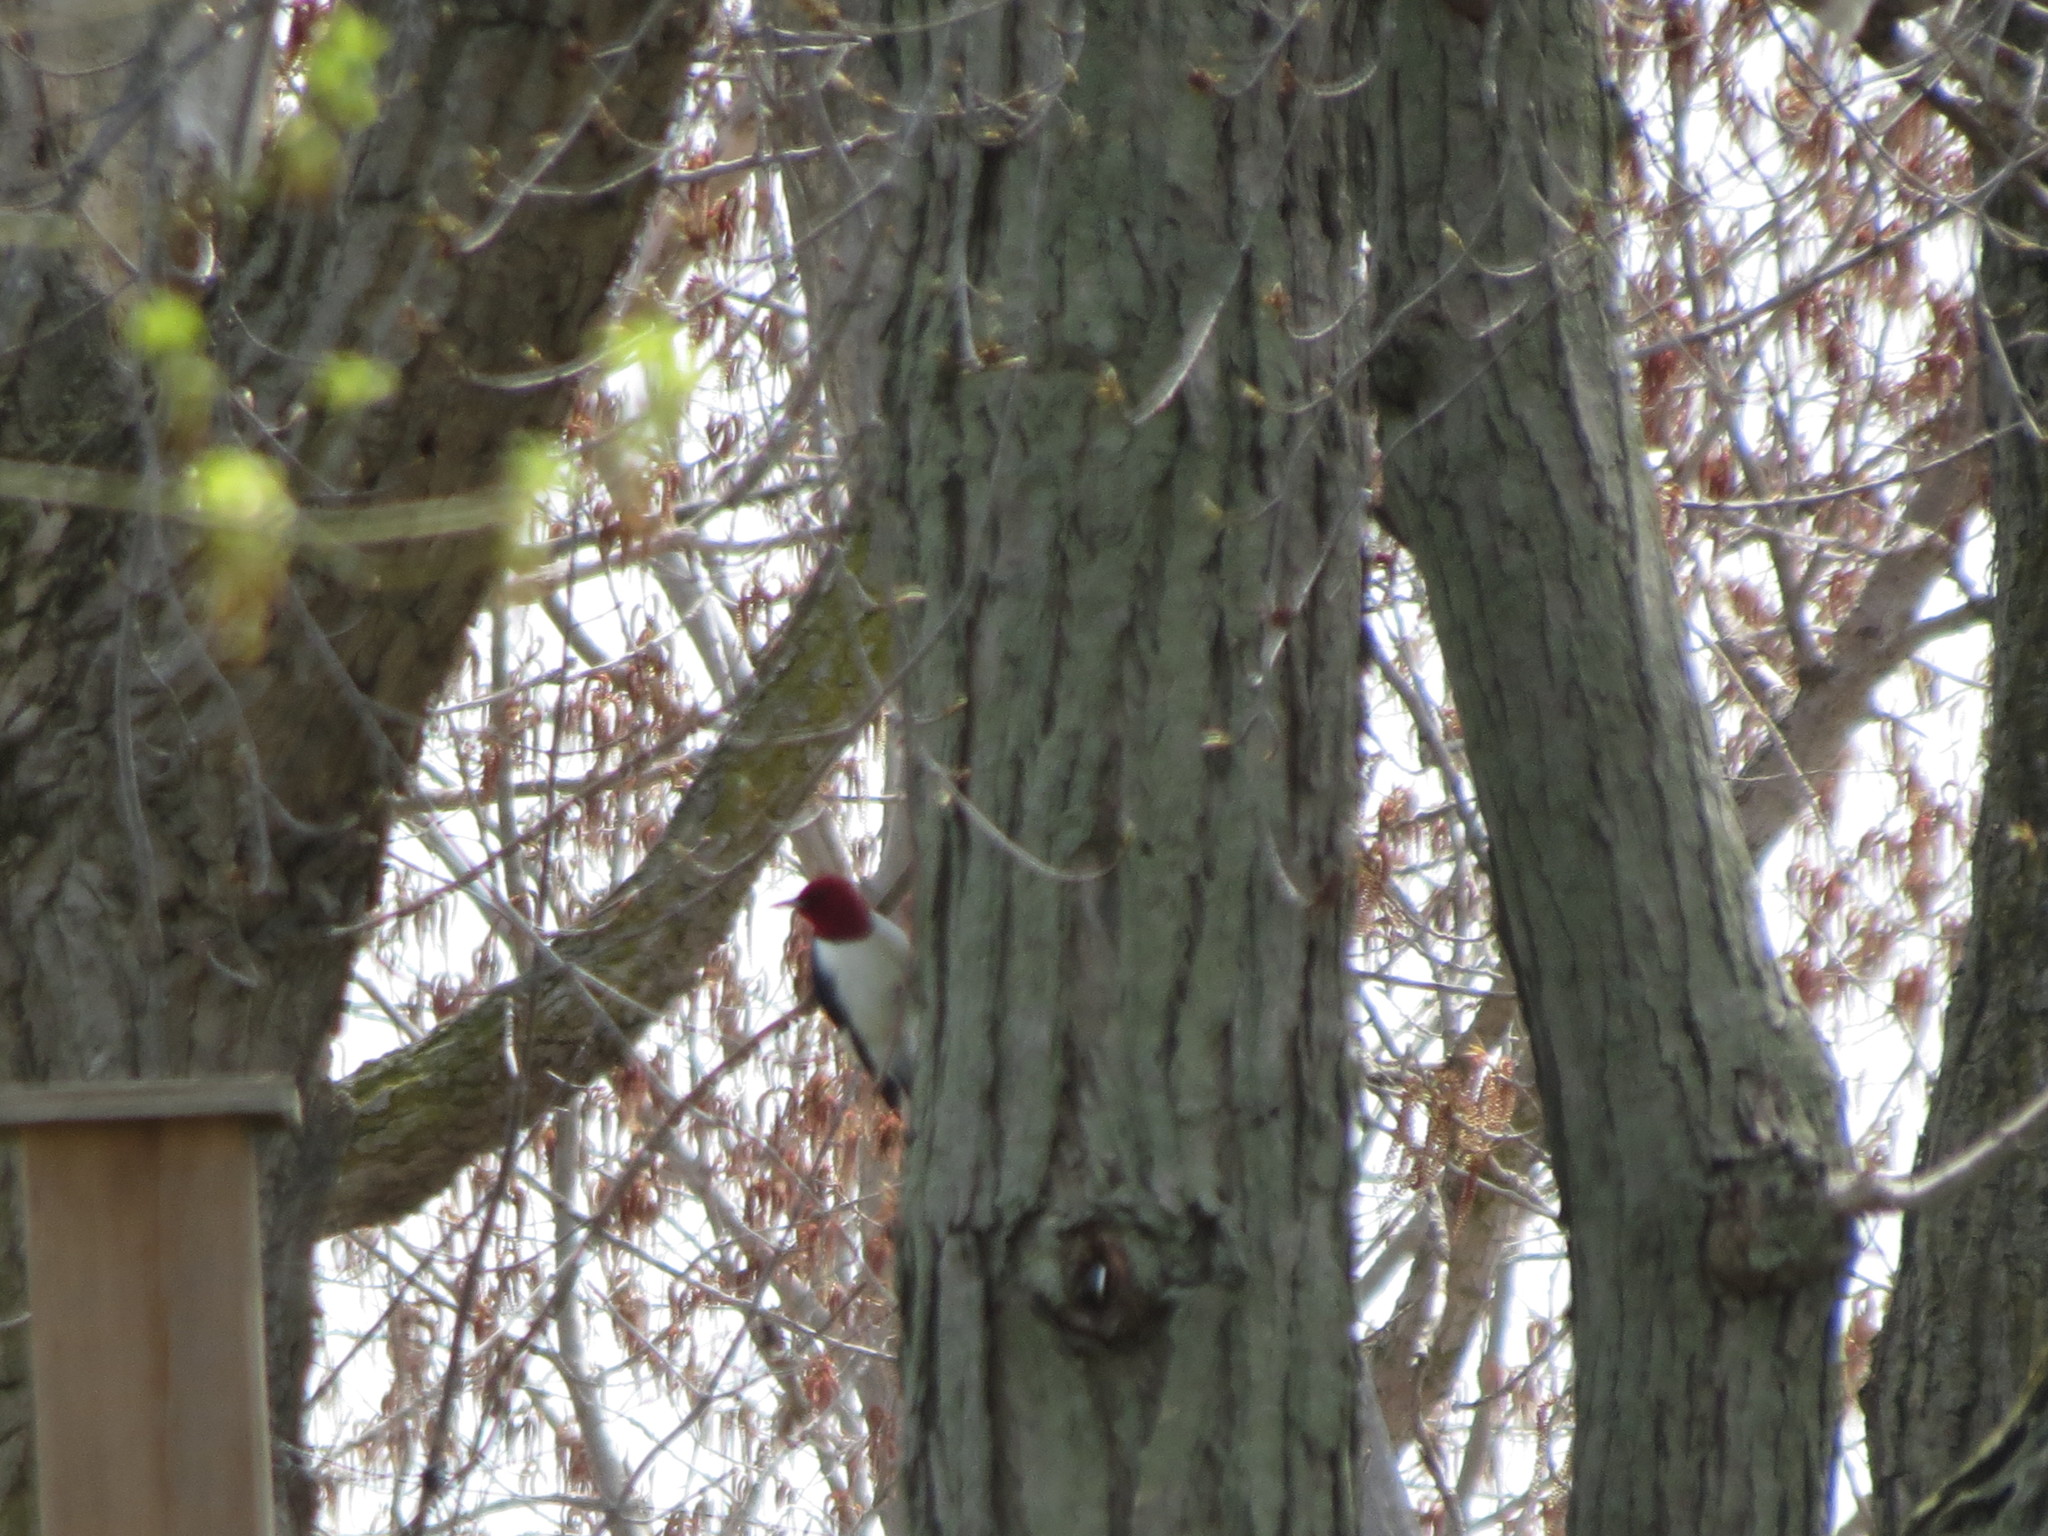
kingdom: Animalia
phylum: Chordata
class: Aves
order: Piciformes
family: Picidae
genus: Melanerpes
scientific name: Melanerpes erythrocephalus
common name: Red-headed woodpecker
